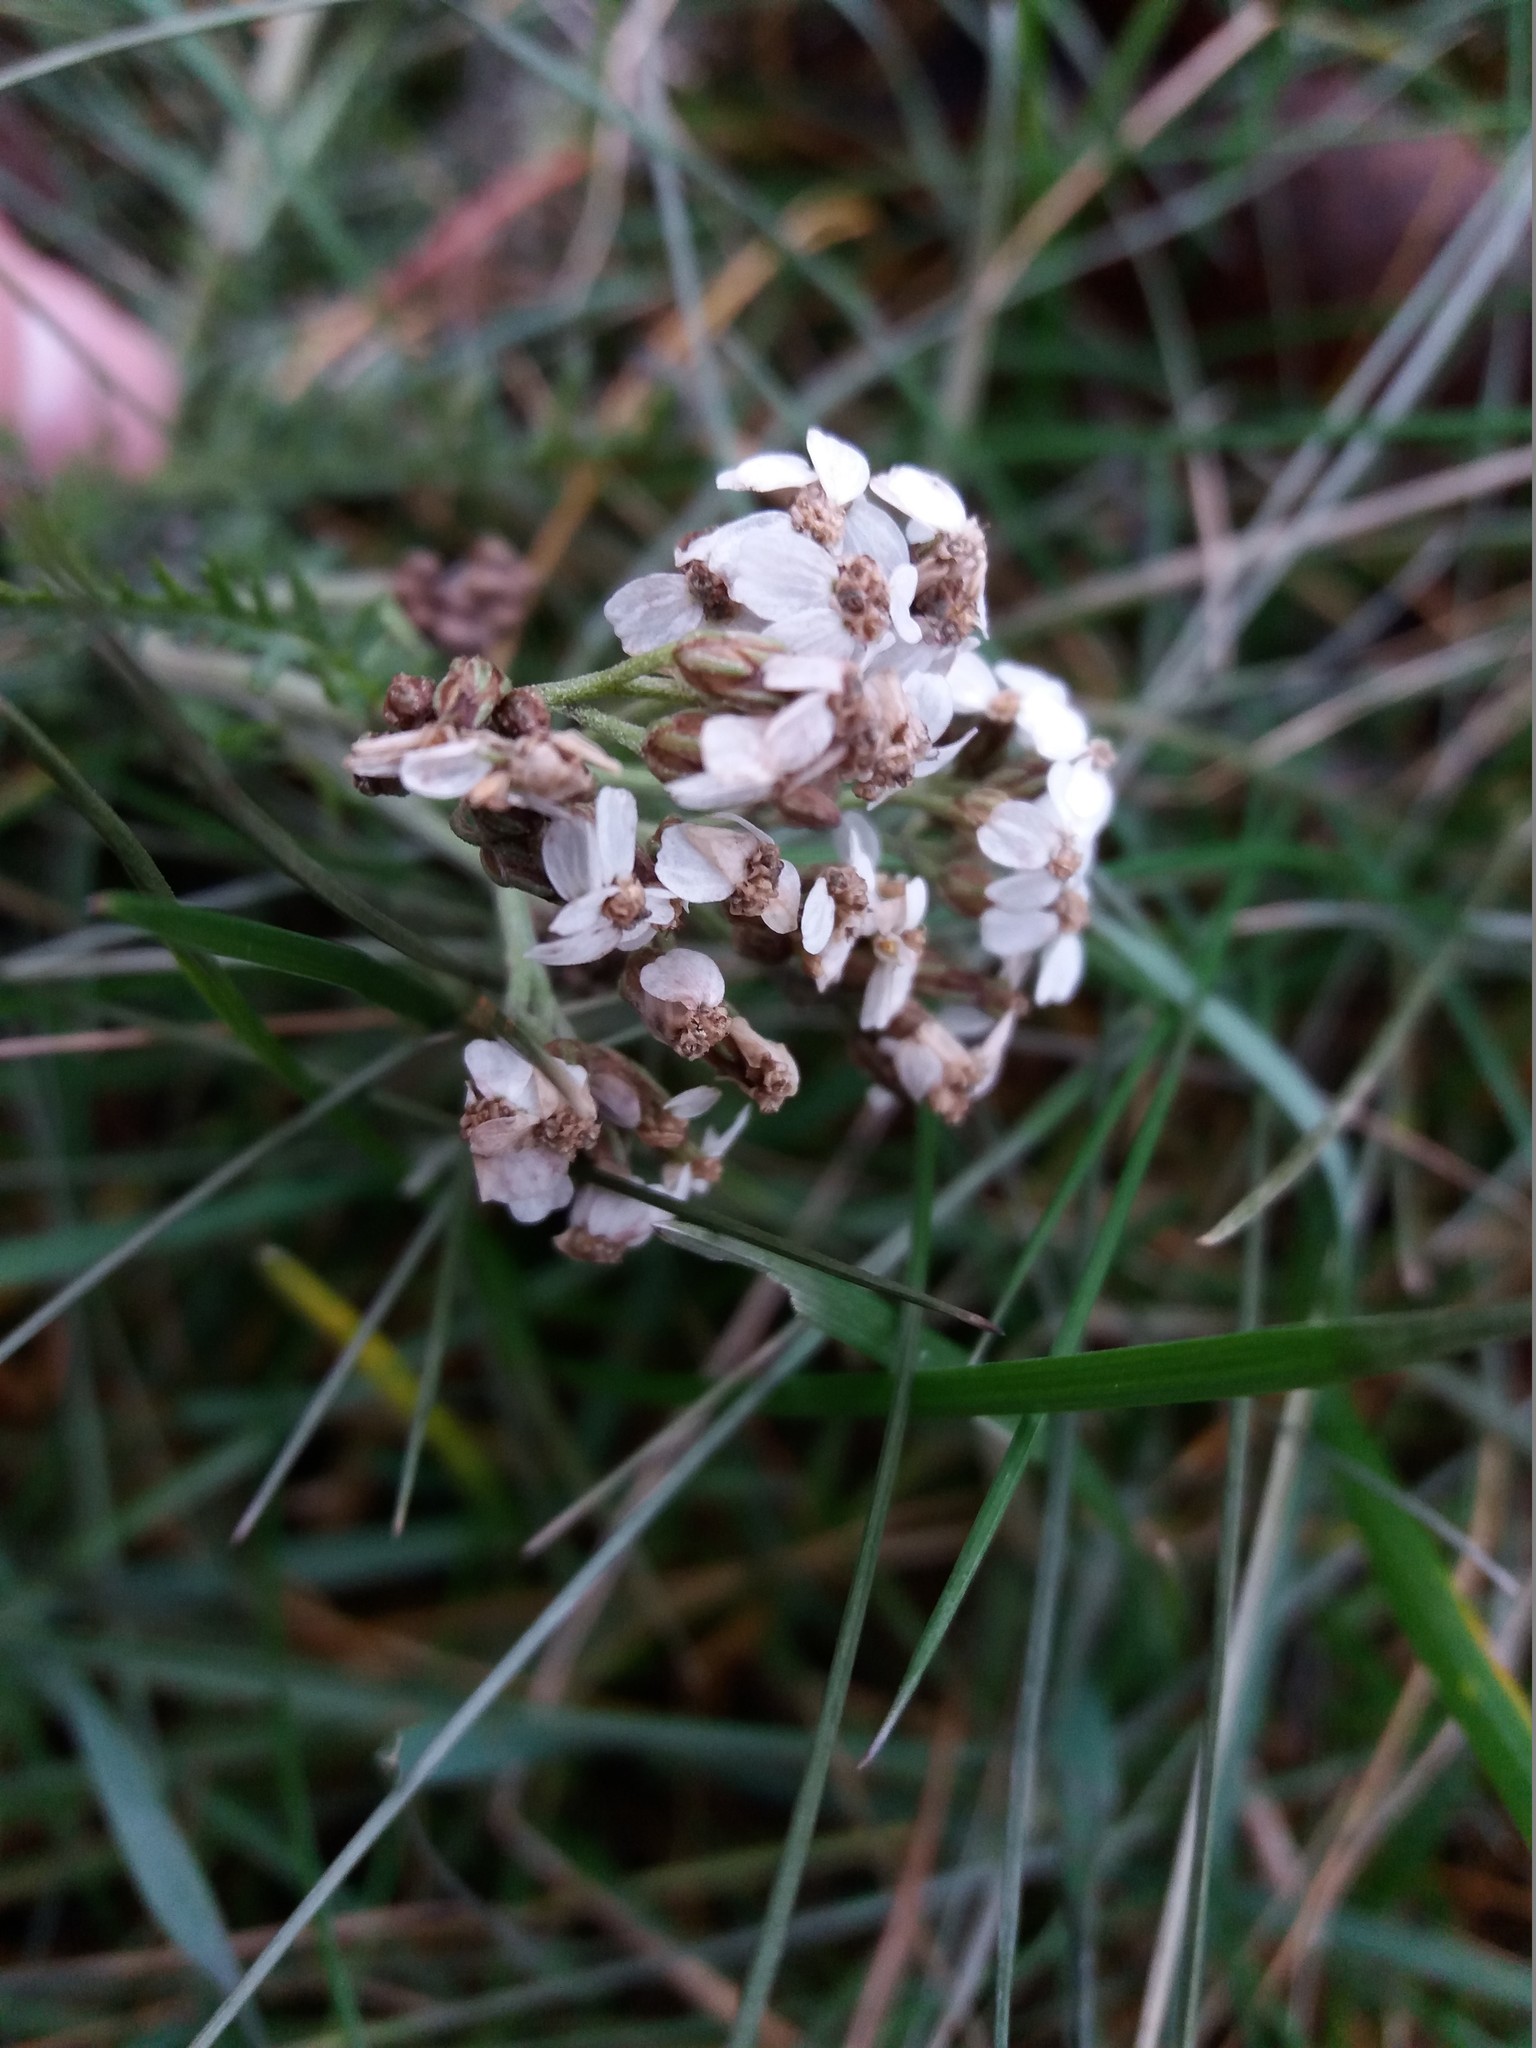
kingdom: Plantae
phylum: Tracheophyta
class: Magnoliopsida
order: Asterales
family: Asteraceae
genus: Achillea
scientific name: Achillea millefolium
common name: Yarrow
